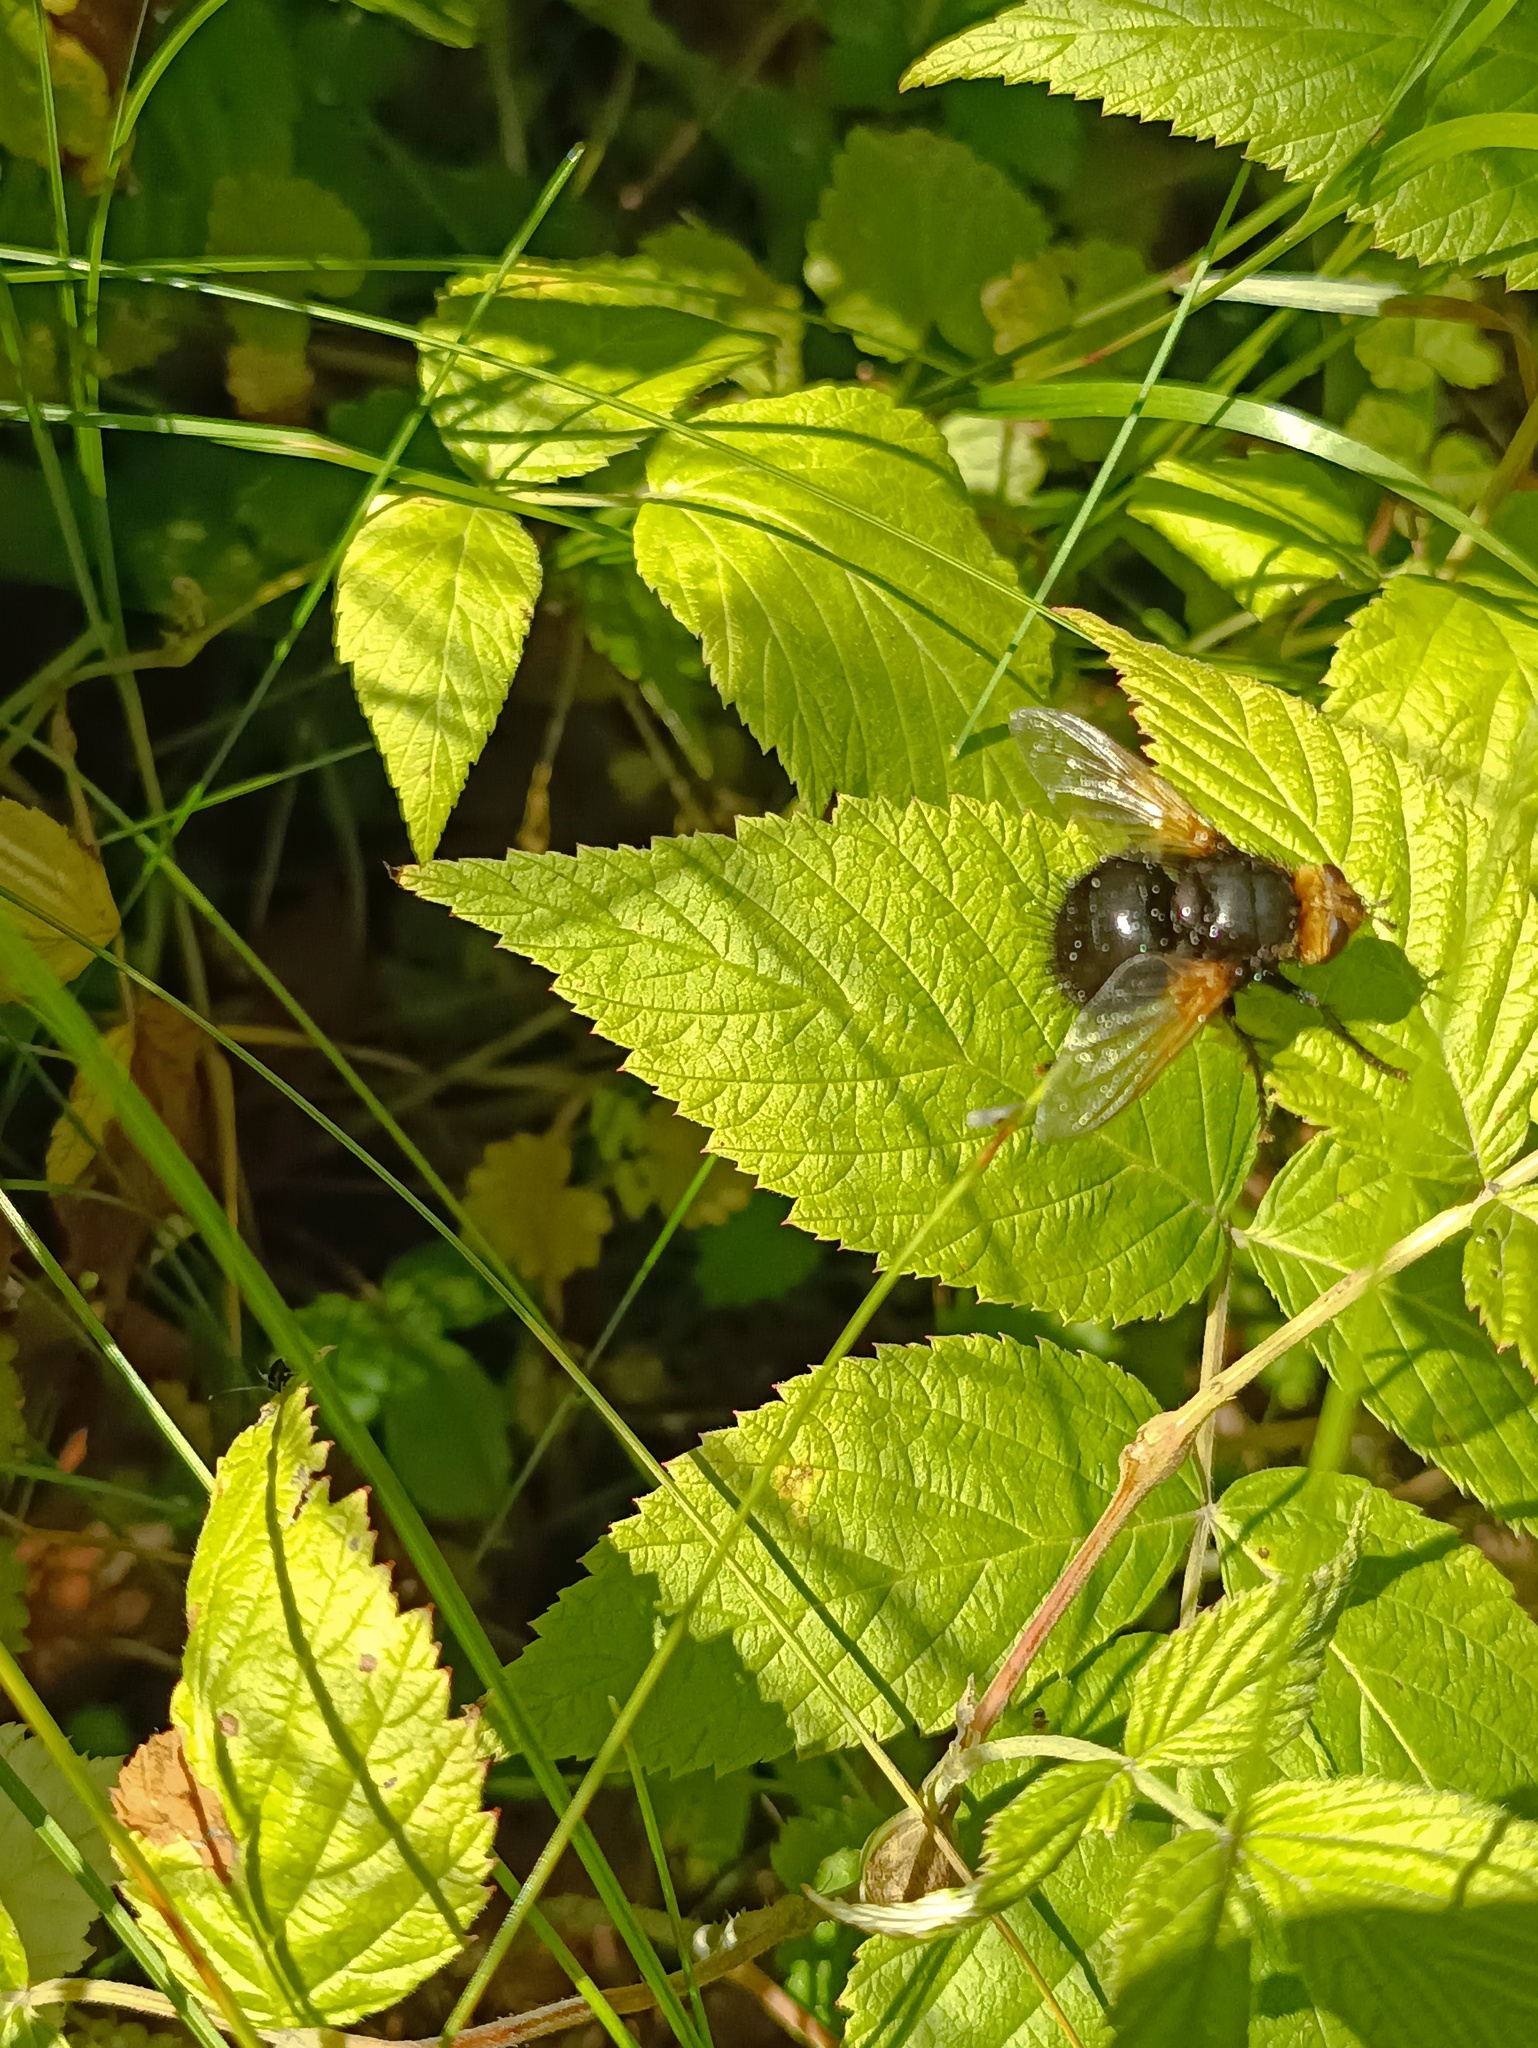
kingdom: Animalia
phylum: Arthropoda
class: Insecta
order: Diptera
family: Tachinidae
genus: Tachina
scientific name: Tachina grossa
